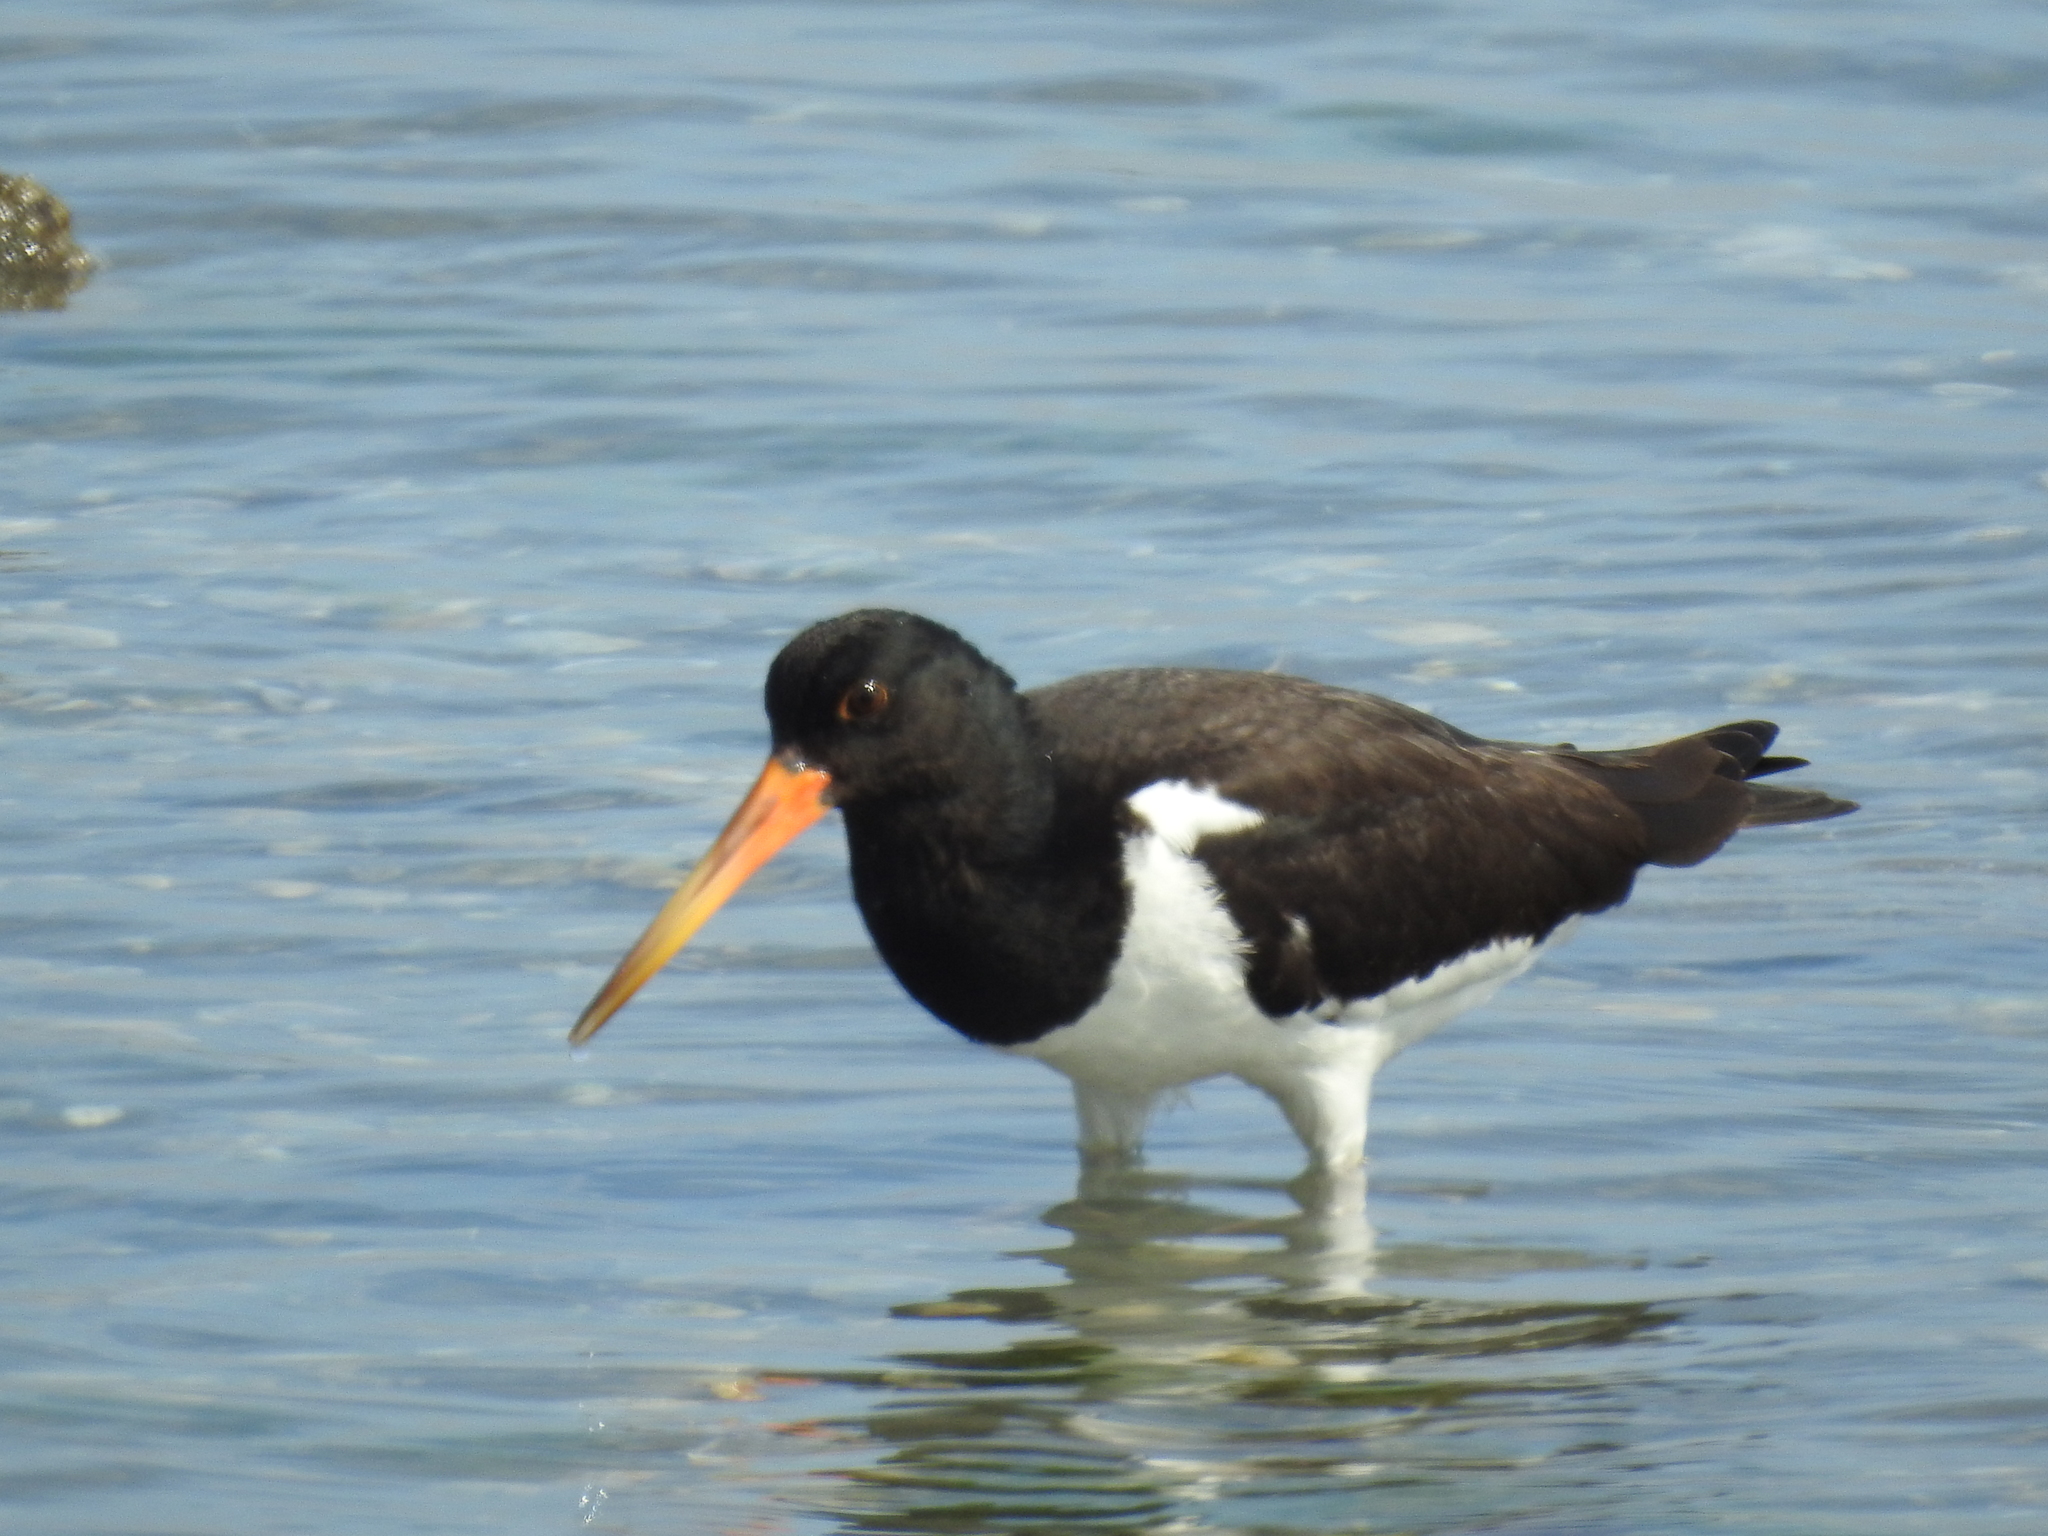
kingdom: Animalia
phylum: Chordata
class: Aves
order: Charadriiformes
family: Haematopodidae
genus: Haematopus
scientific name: Haematopus finschi
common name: South island oystercatcher
